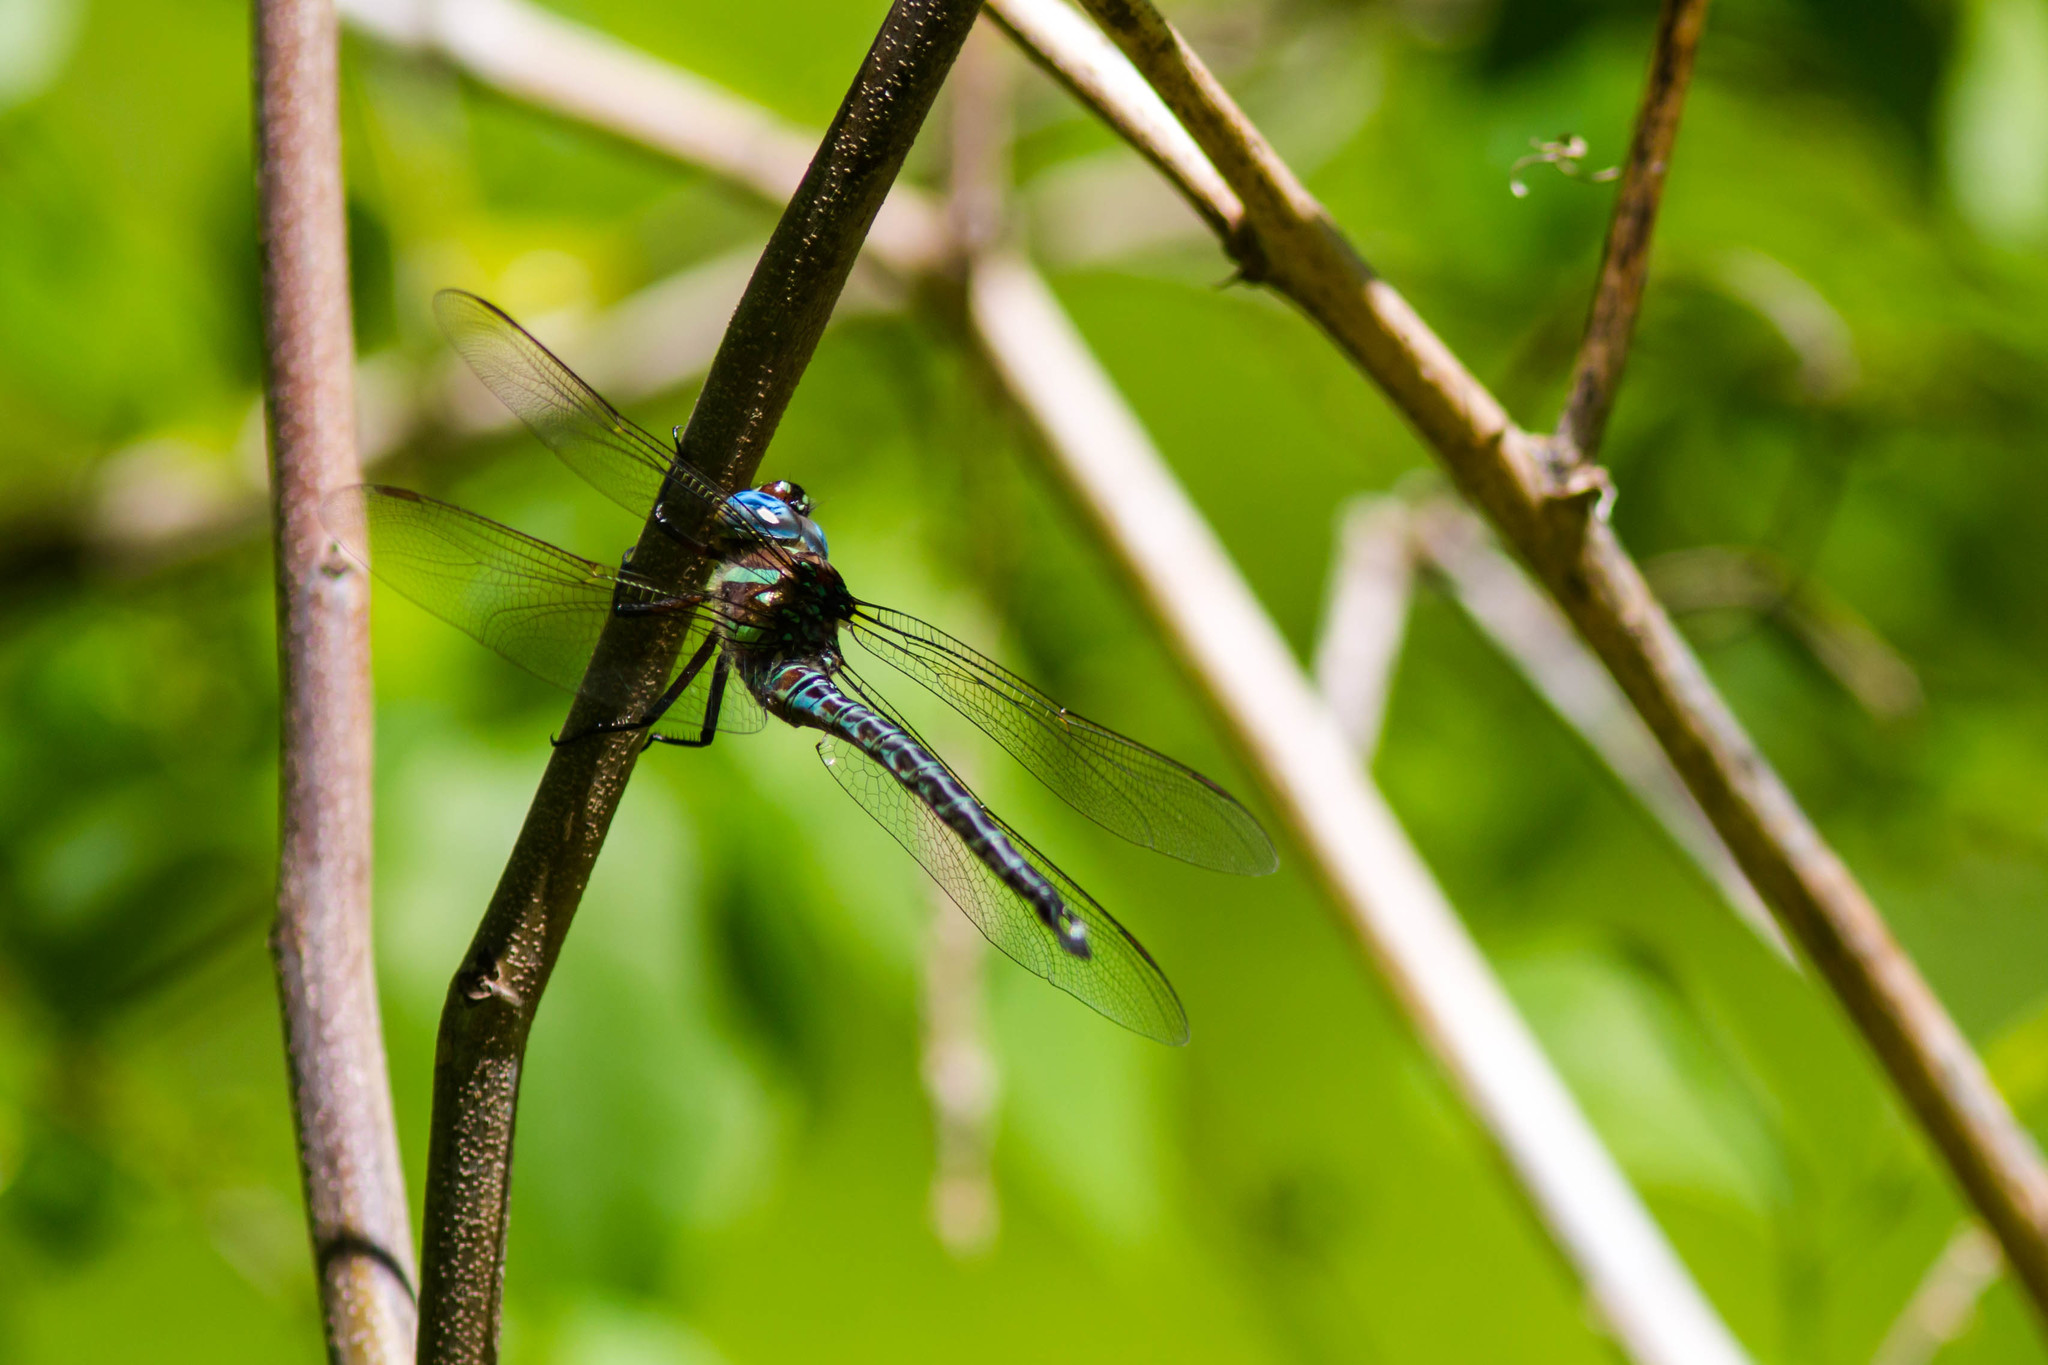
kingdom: Animalia
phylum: Arthropoda
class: Insecta
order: Odonata
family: Aeshnidae
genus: Epiaeschna
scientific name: Epiaeschna heros
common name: Swamp darner
